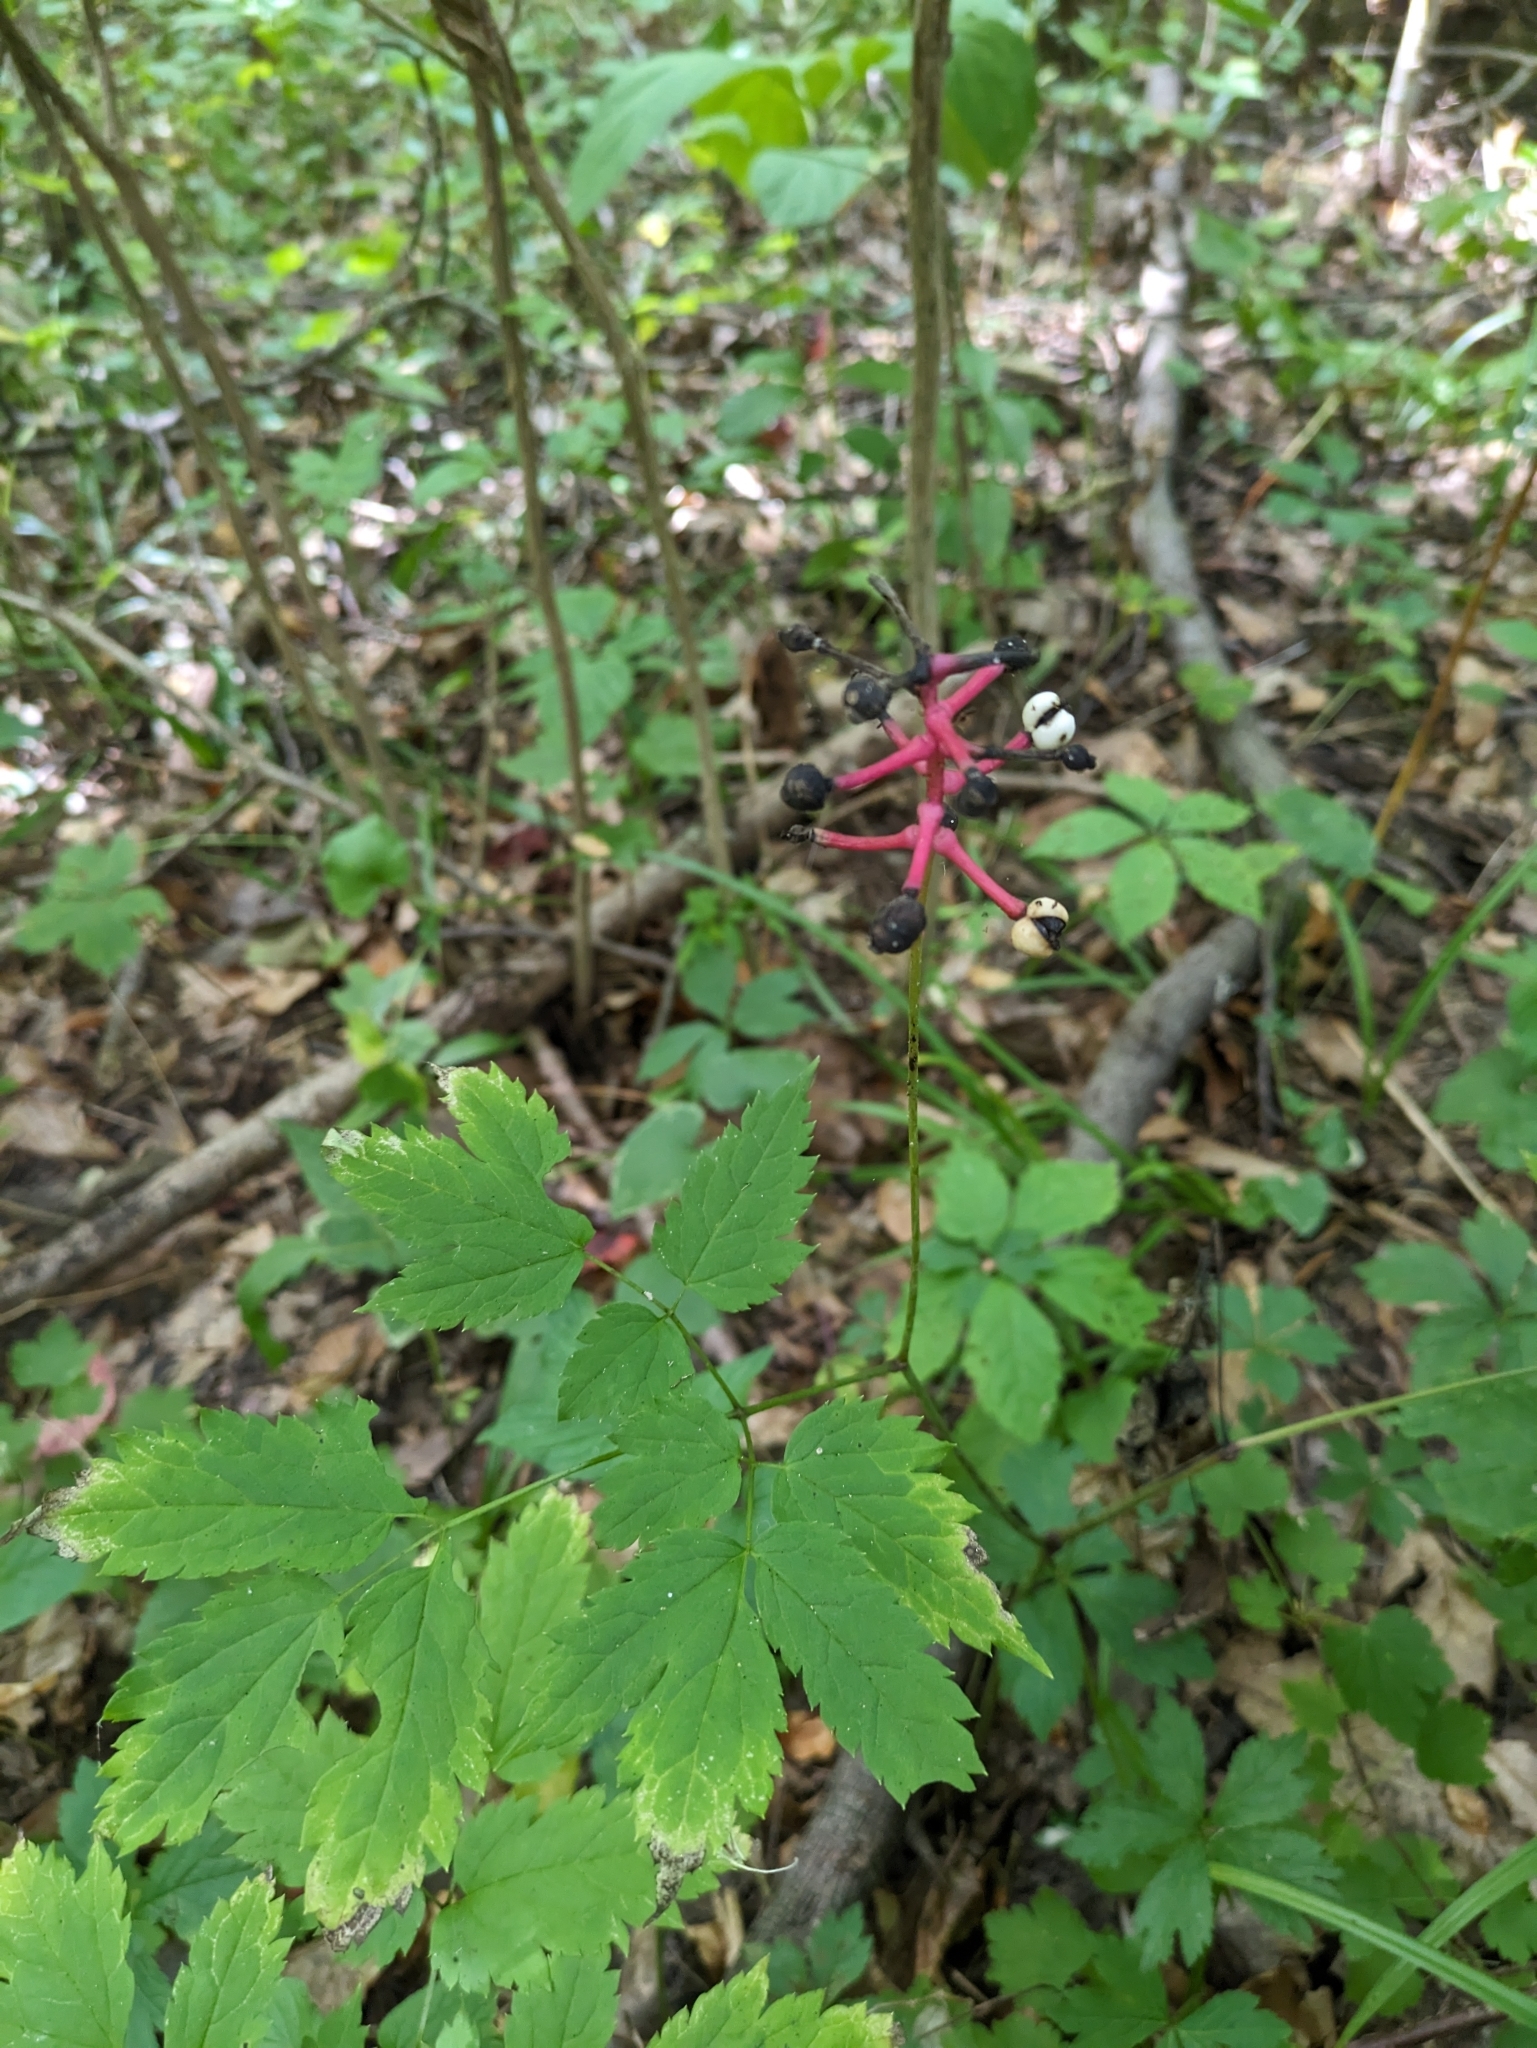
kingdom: Plantae
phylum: Tracheophyta
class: Magnoliopsida
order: Ranunculales
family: Ranunculaceae
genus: Actaea
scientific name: Actaea pachypoda
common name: Doll's-eyes
